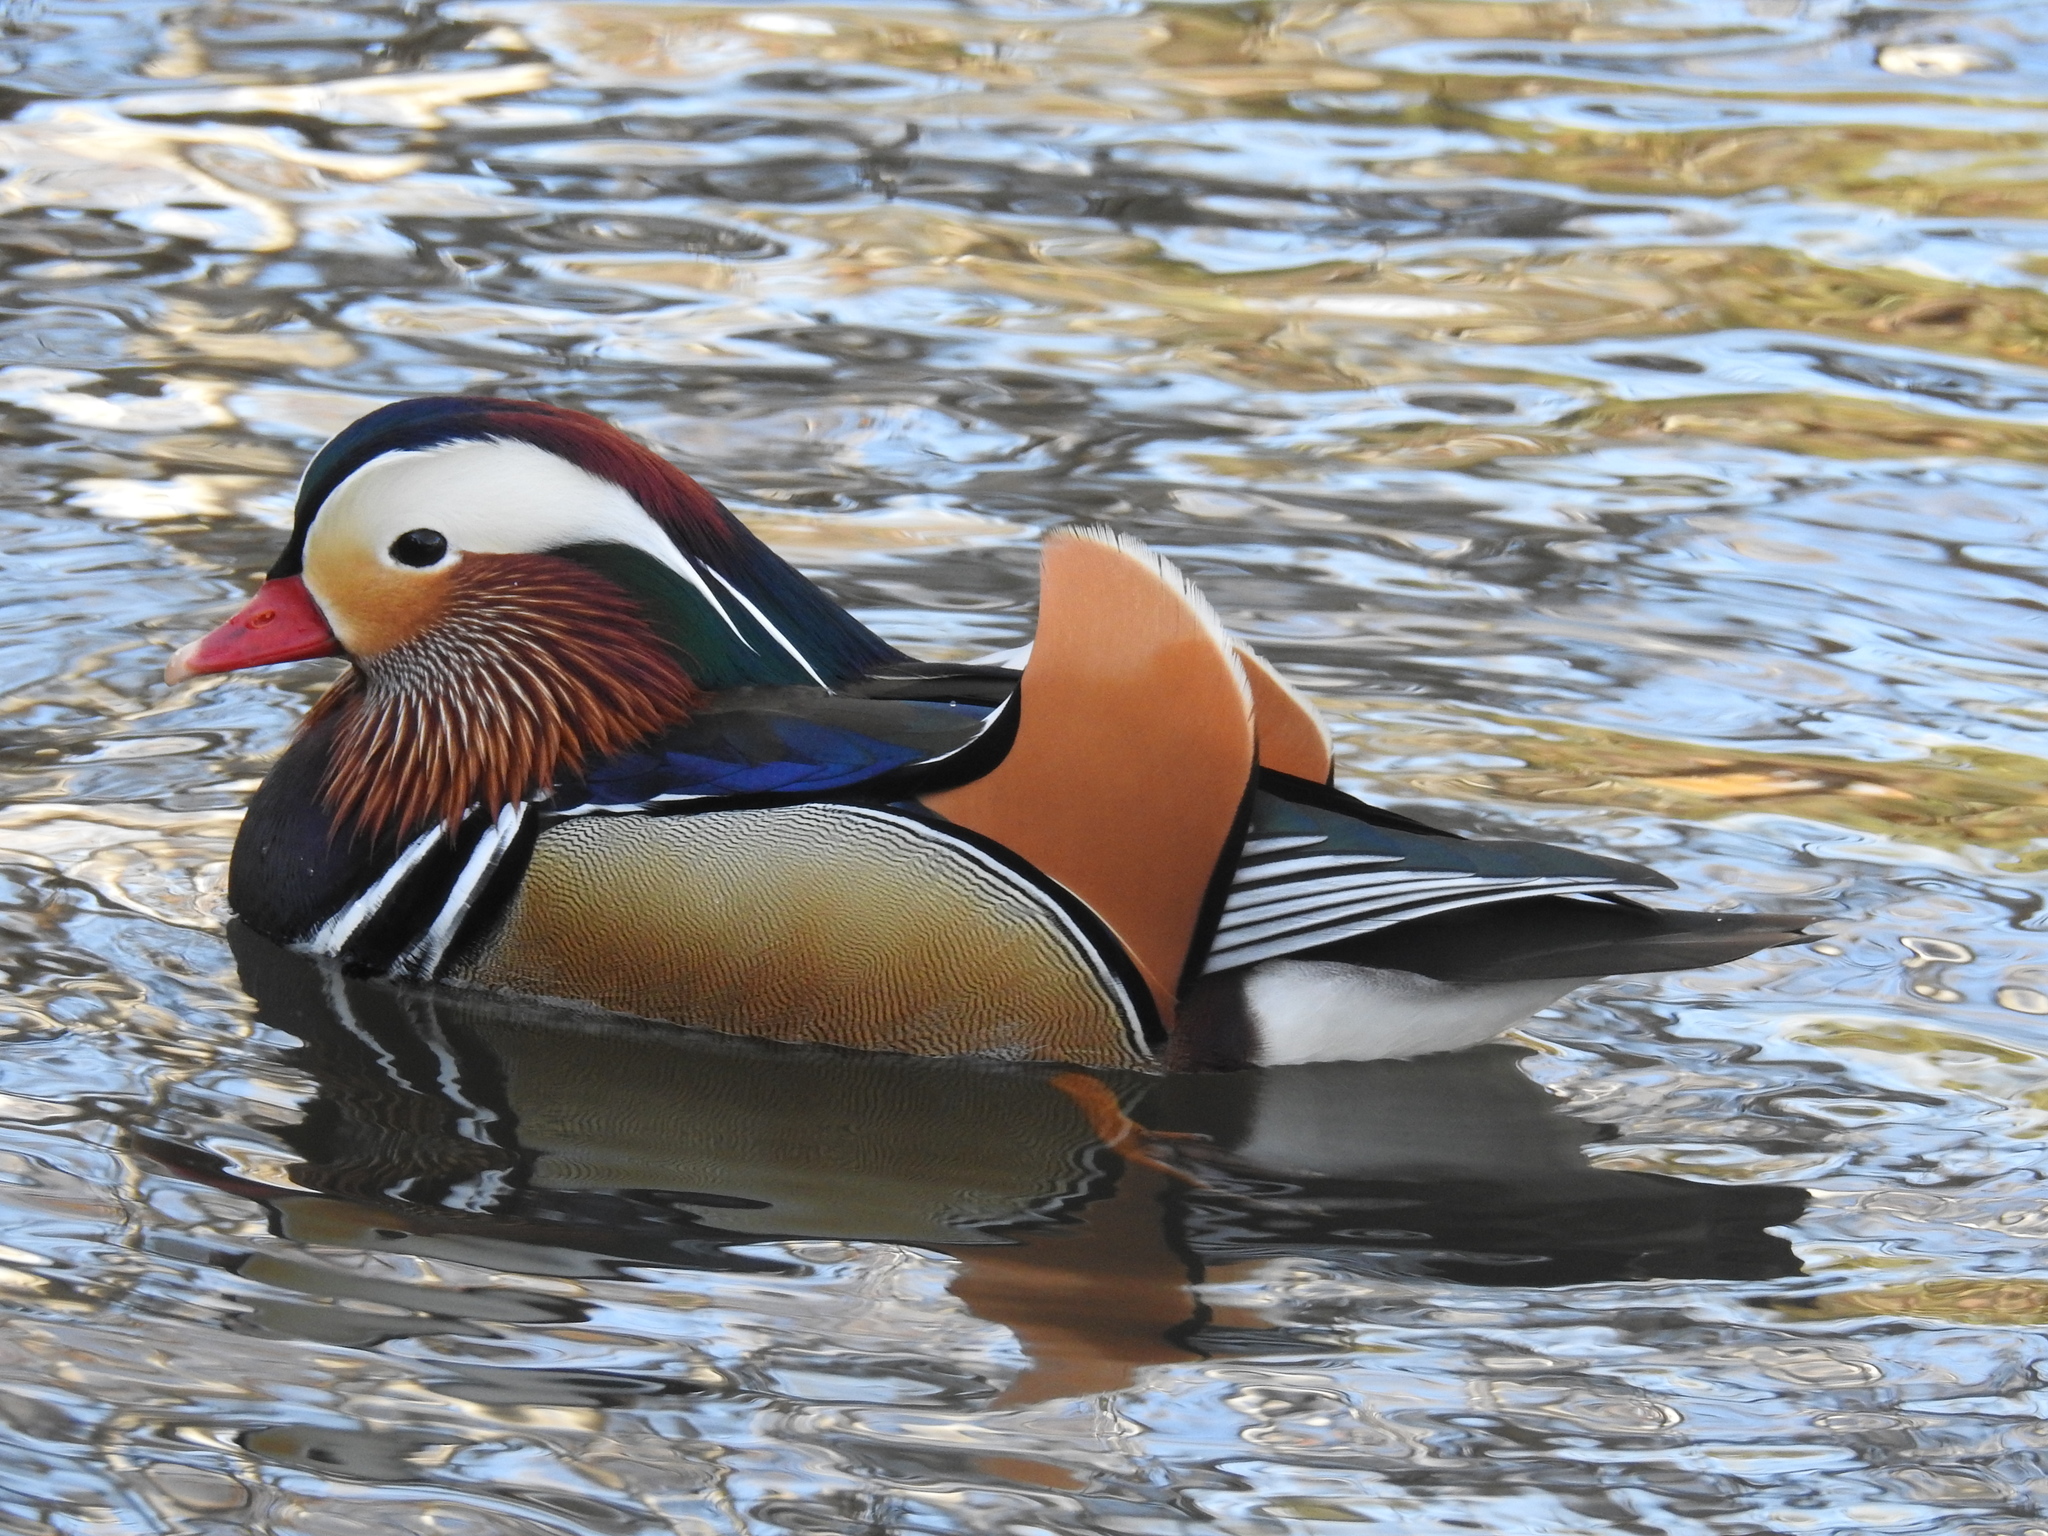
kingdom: Animalia
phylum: Chordata
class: Aves
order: Anseriformes
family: Anatidae
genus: Aix
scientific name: Aix galericulata
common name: Mandarin duck
